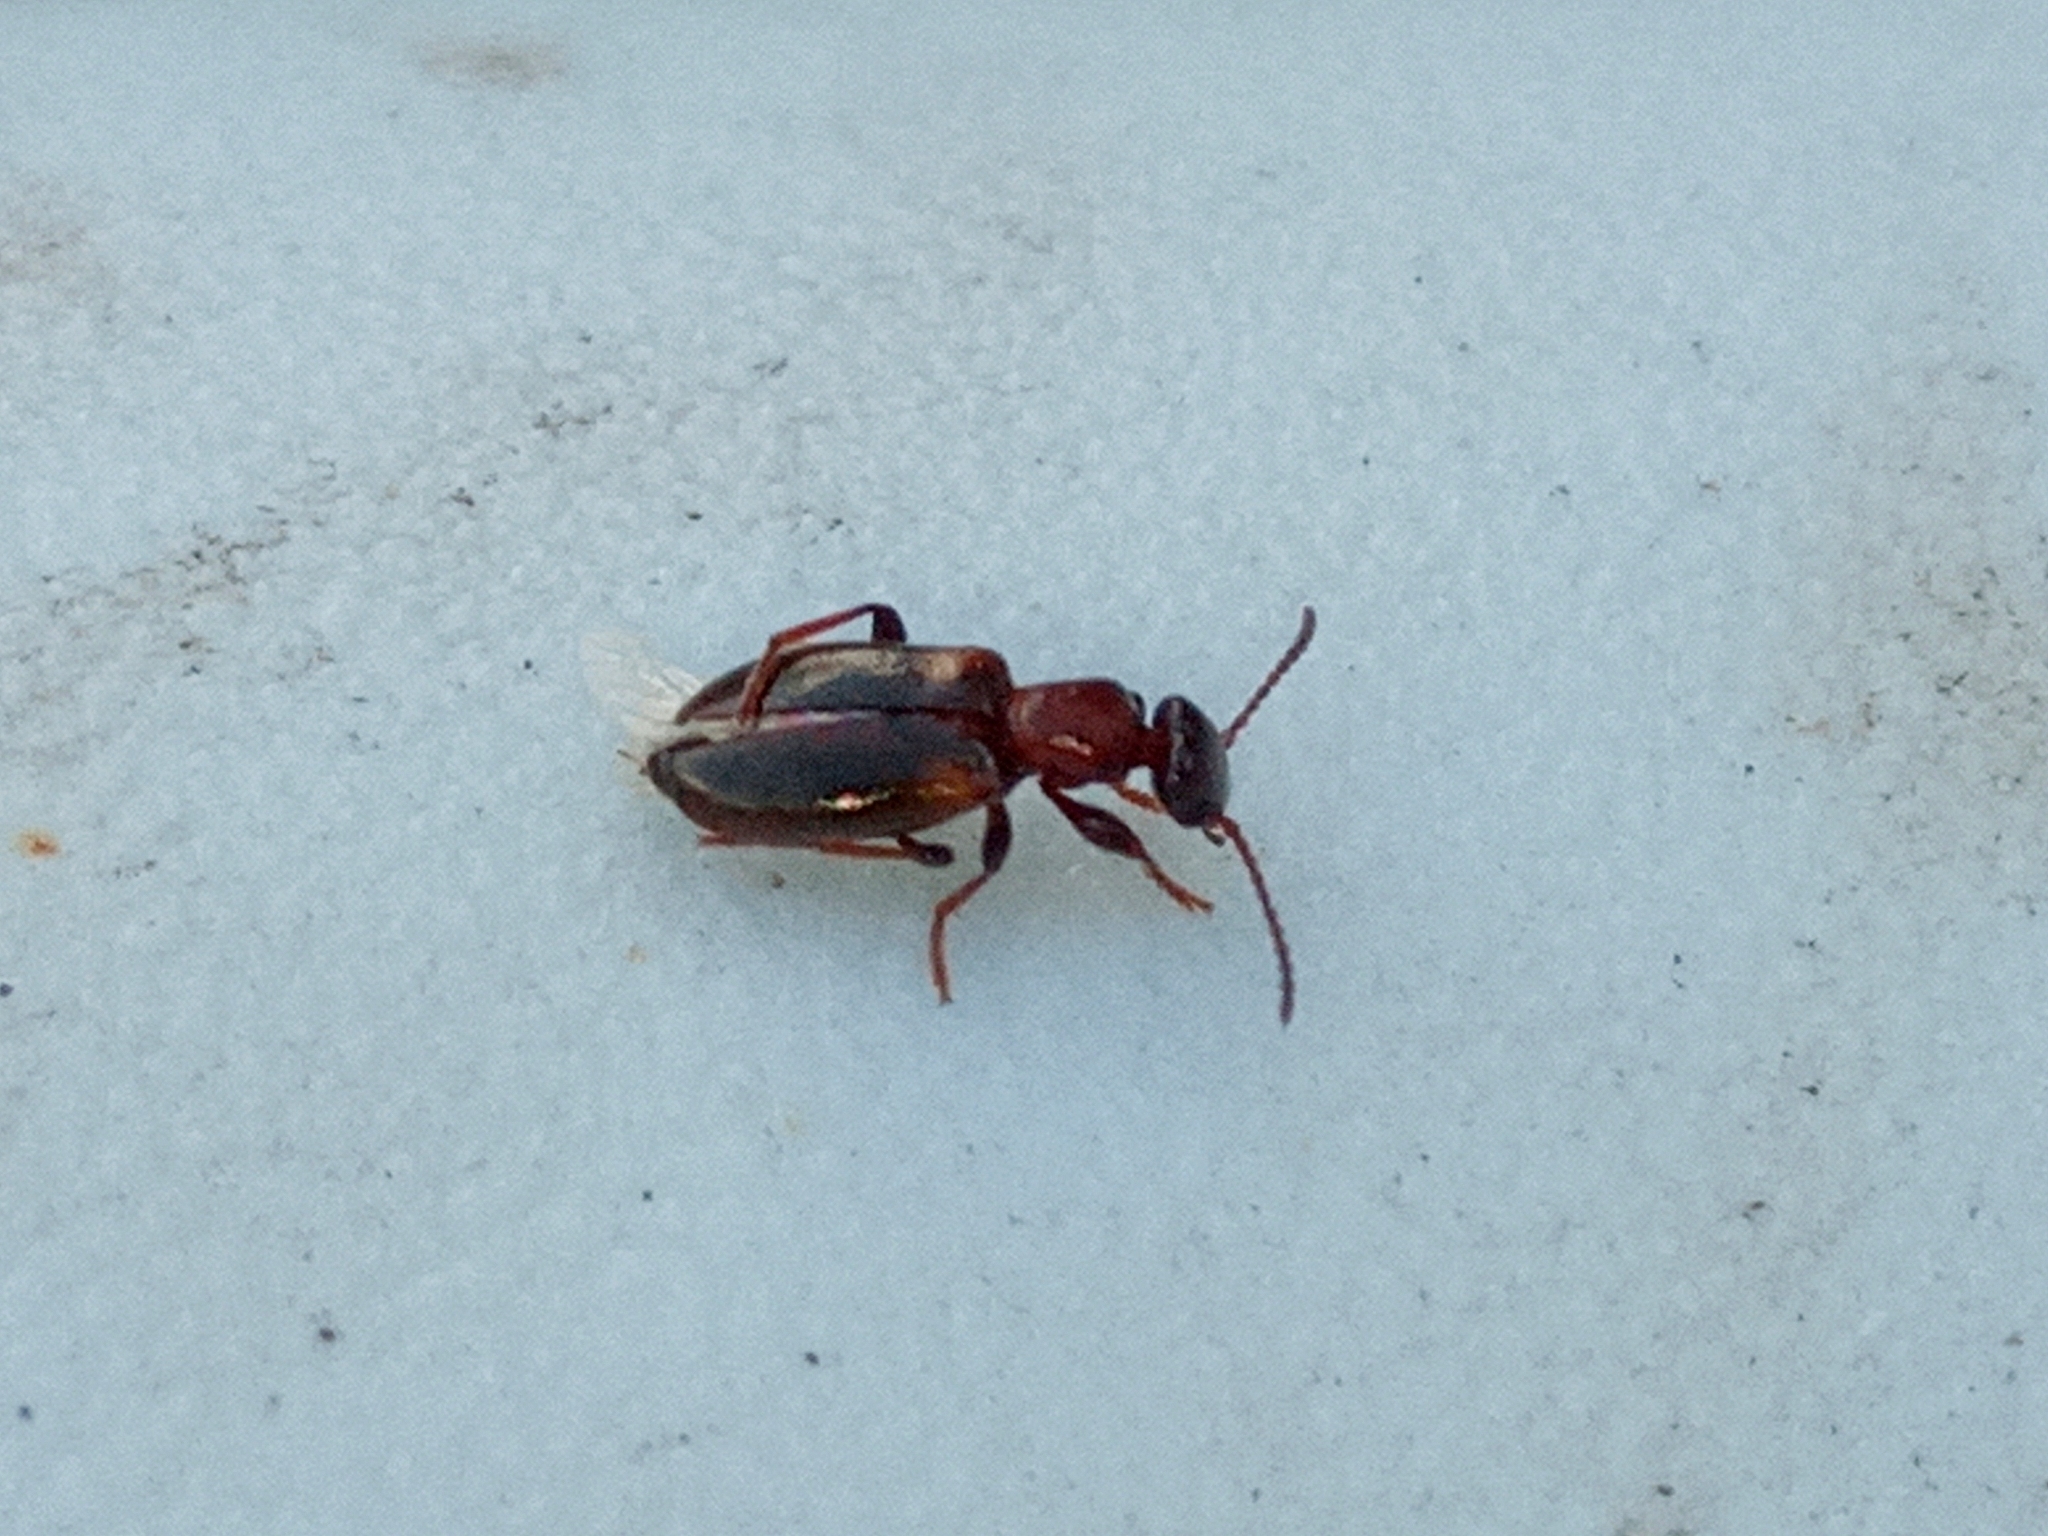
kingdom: Animalia
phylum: Arthropoda
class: Insecta
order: Coleoptera
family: Anthicidae
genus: Omonadus
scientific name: Omonadus
